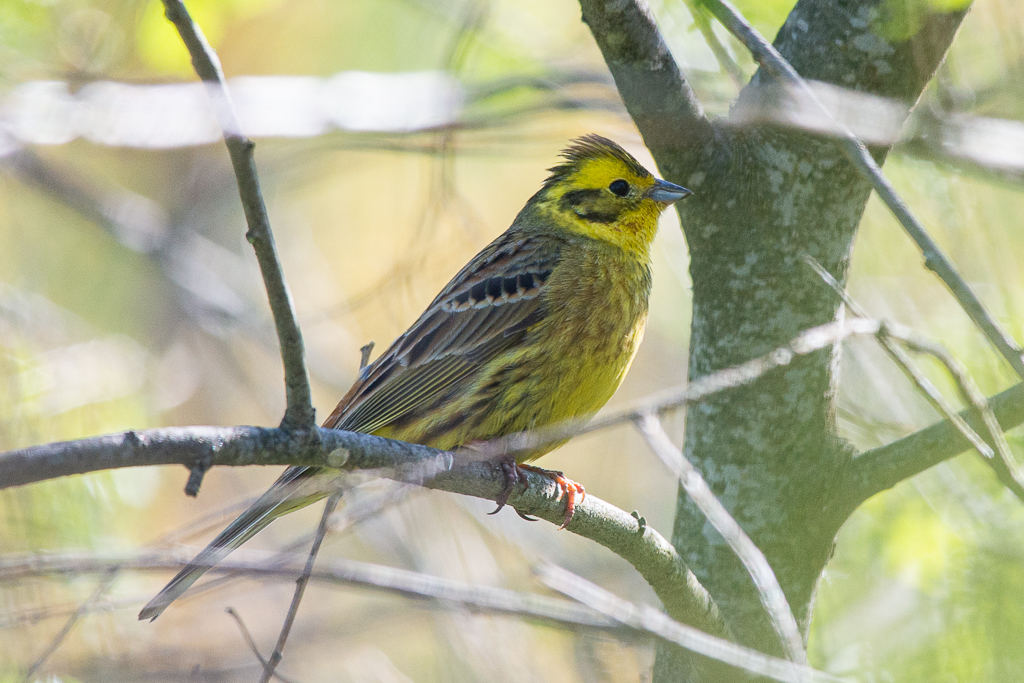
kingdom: Animalia
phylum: Chordata
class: Aves
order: Passeriformes
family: Emberizidae
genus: Emberiza
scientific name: Emberiza citrinella
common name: Yellowhammer
